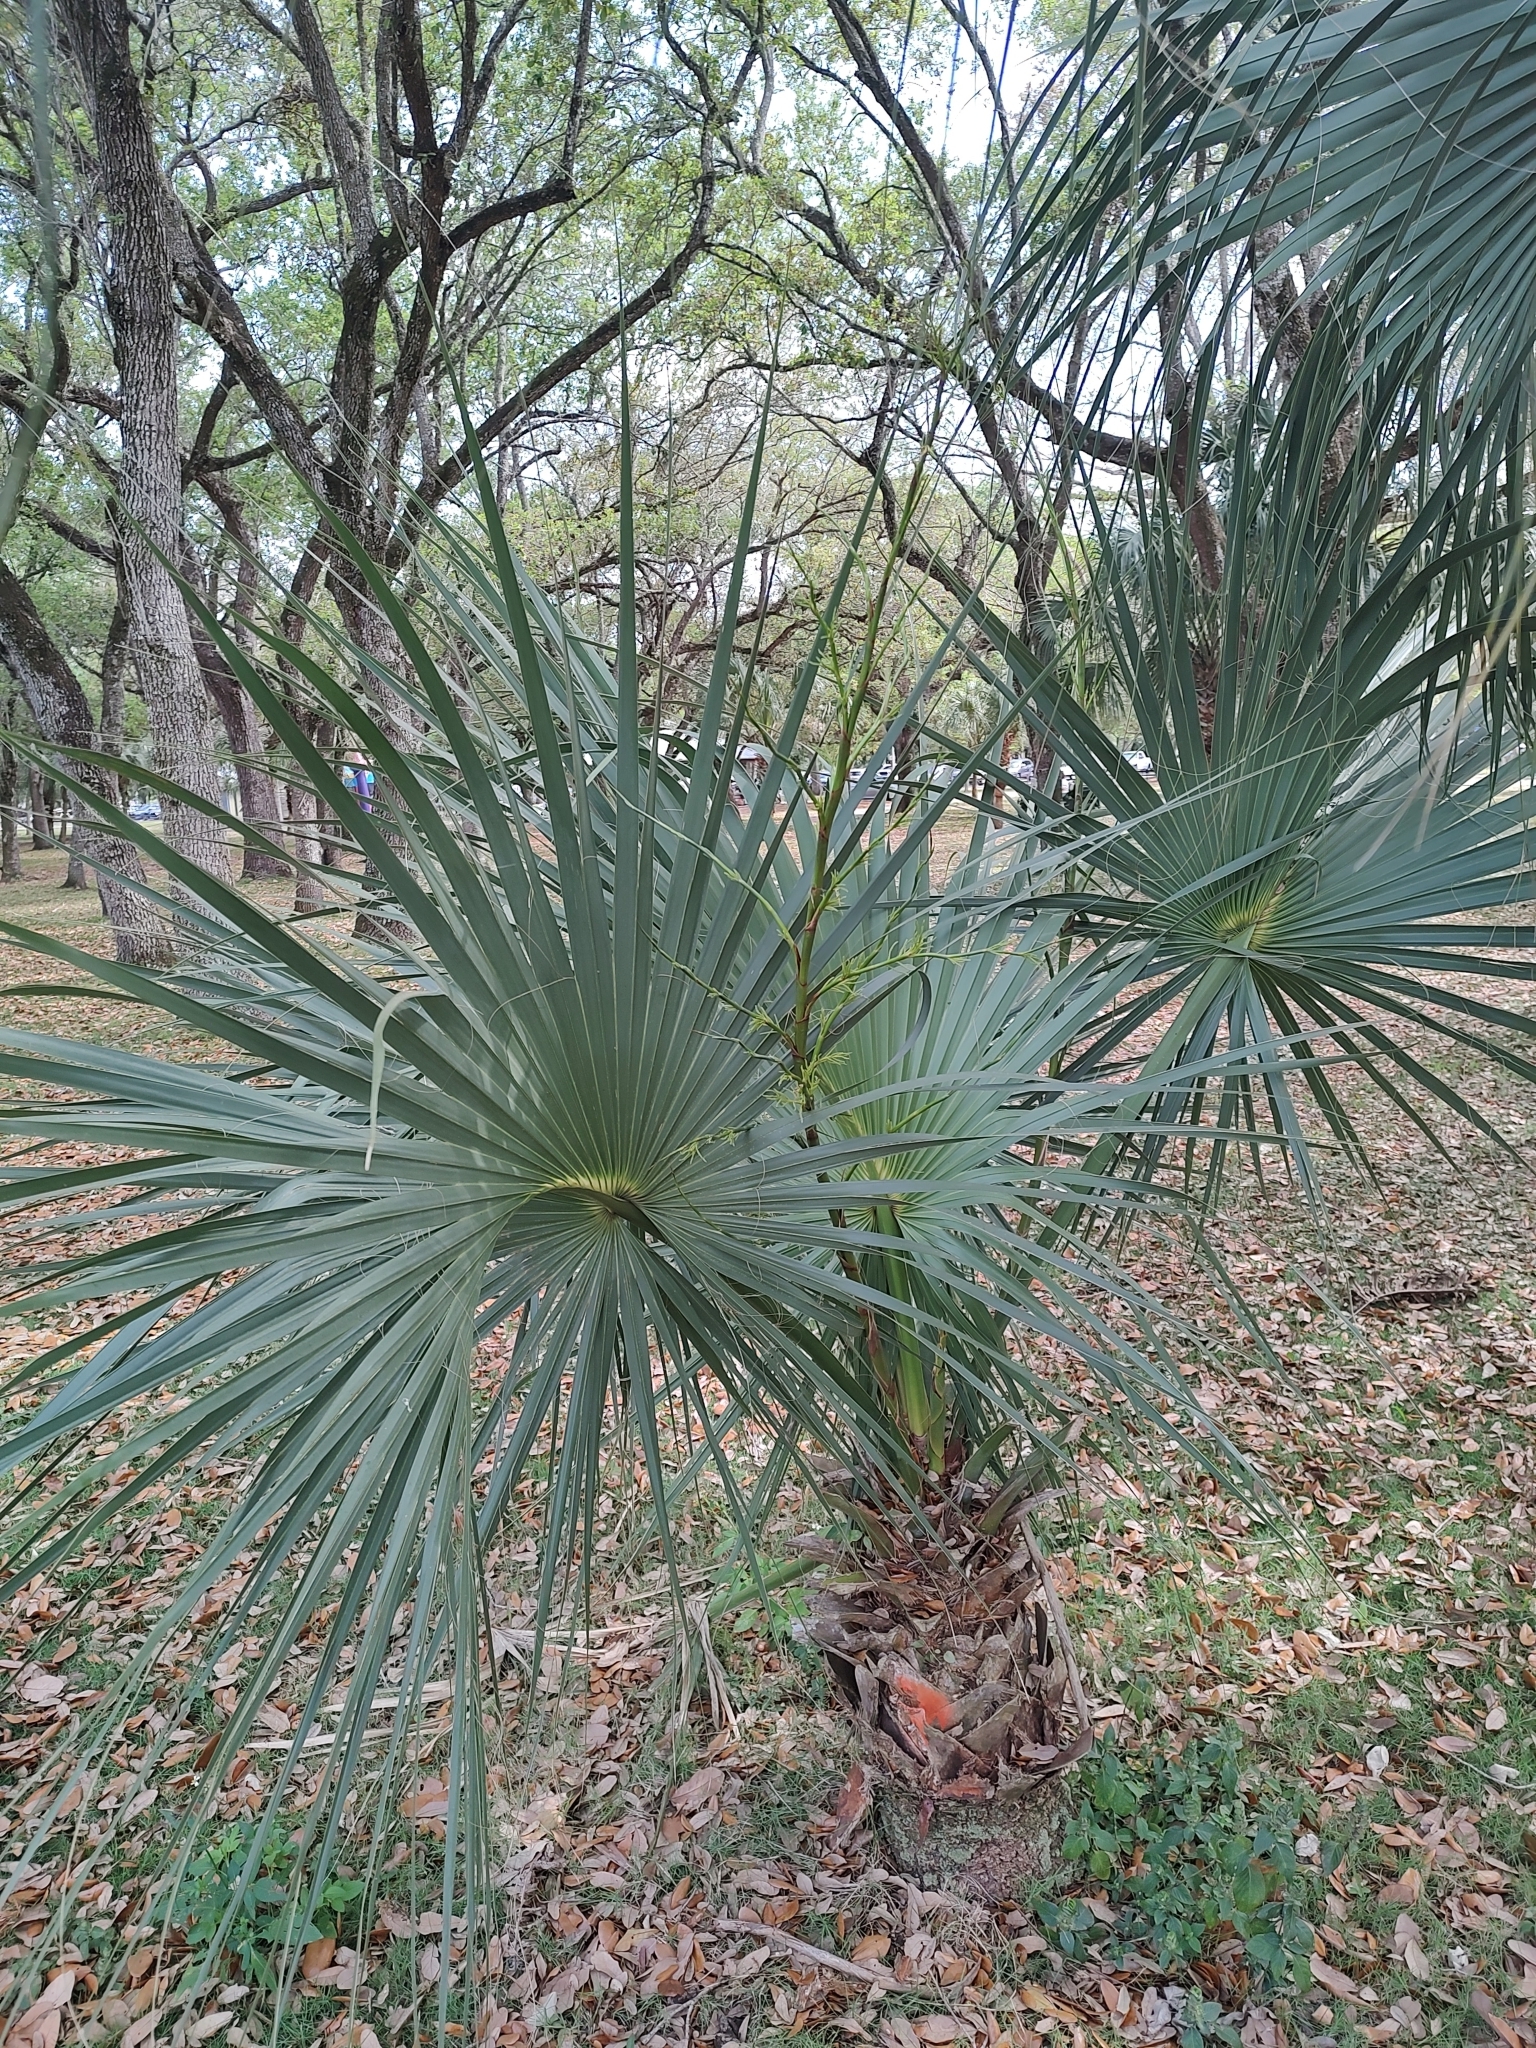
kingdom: Plantae
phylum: Tracheophyta
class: Liliopsida
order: Arecales
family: Arecaceae
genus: Sabal
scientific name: Sabal palmetto
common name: Blue palmetto
